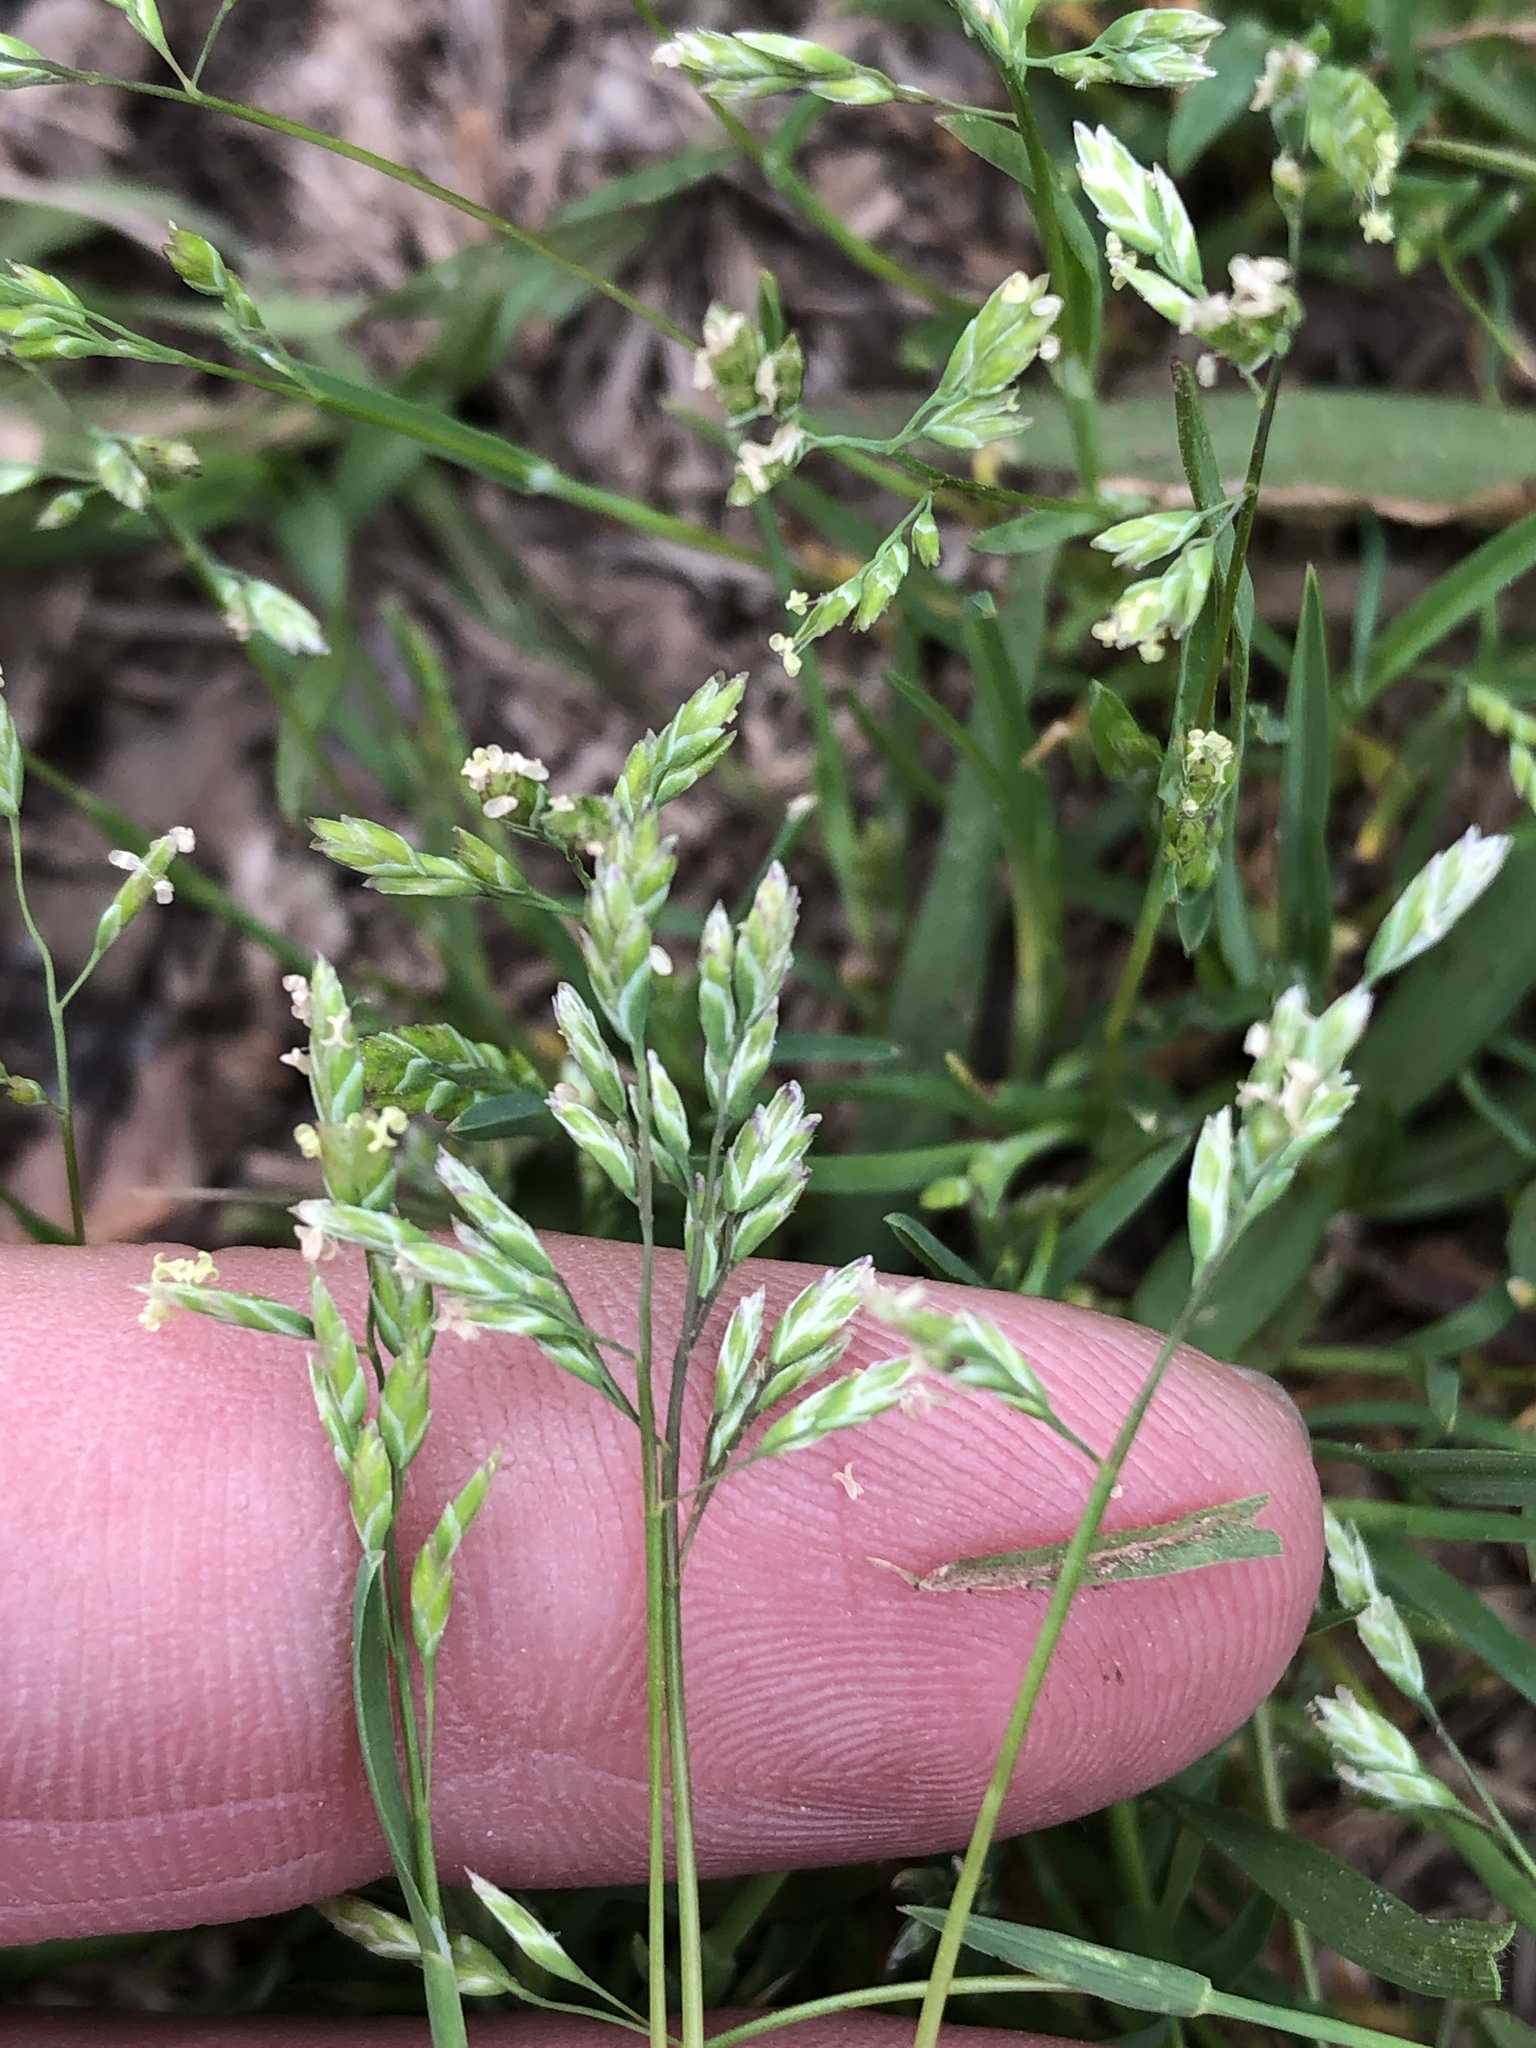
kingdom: Plantae
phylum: Tracheophyta
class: Liliopsida
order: Poales
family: Poaceae
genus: Poa
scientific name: Poa annua
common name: Annual bluegrass
